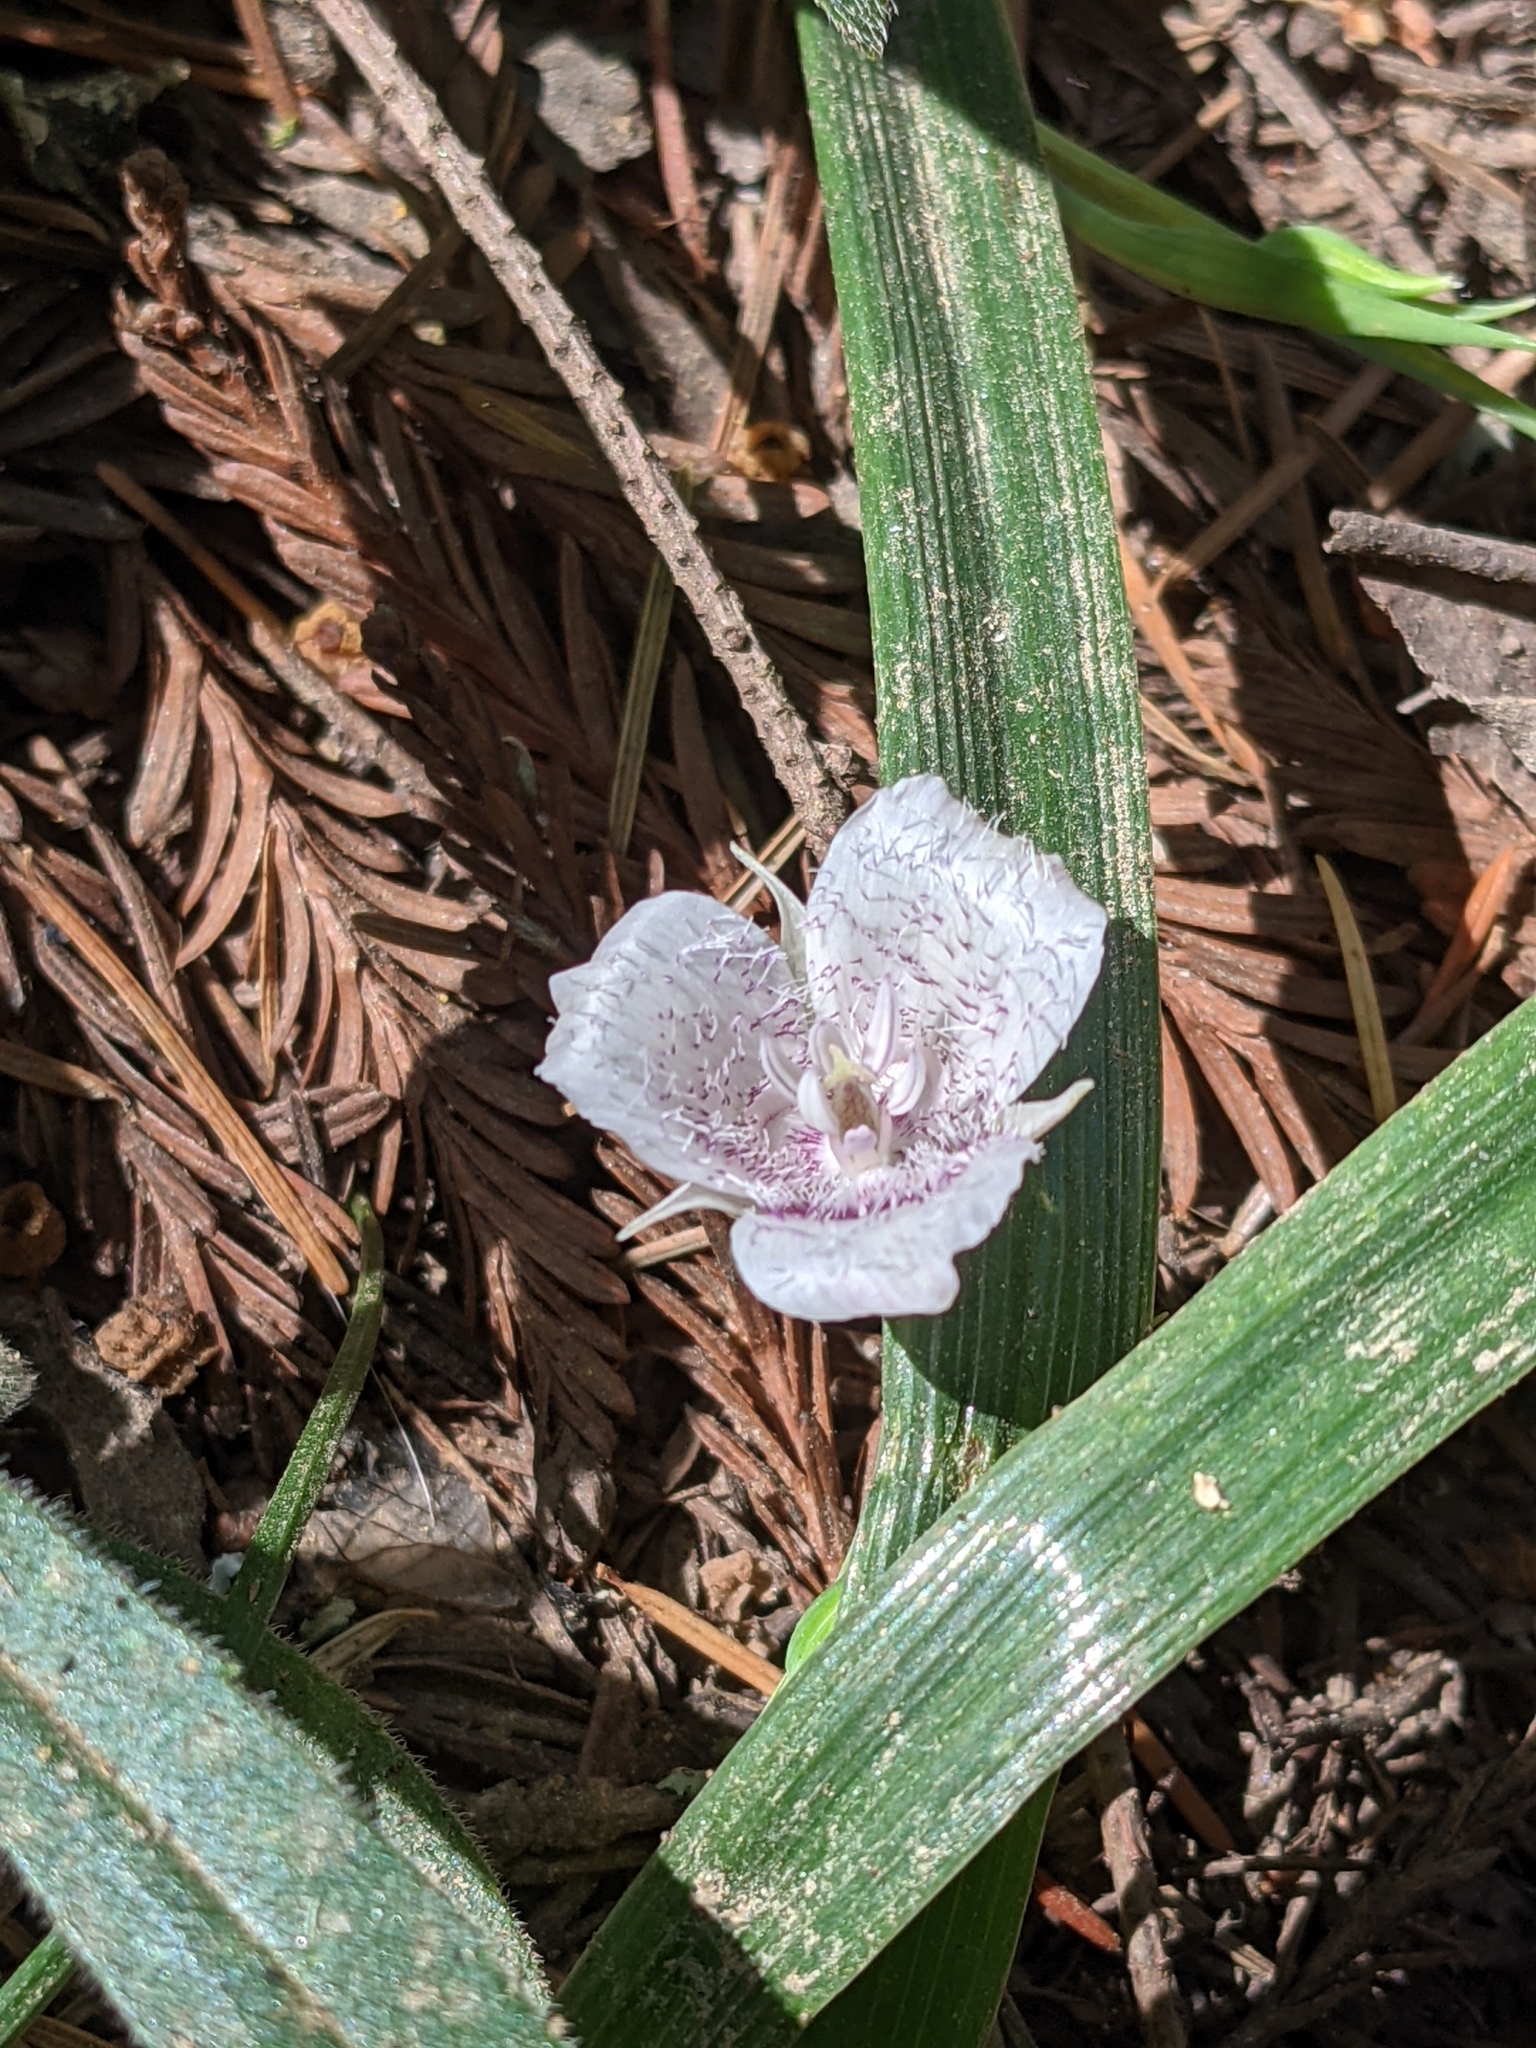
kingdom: Plantae
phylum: Tracheophyta
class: Liliopsida
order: Liliales
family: Liliaceae
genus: Calochortus
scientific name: Calochortus tolmiei
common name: Pussy-ears
